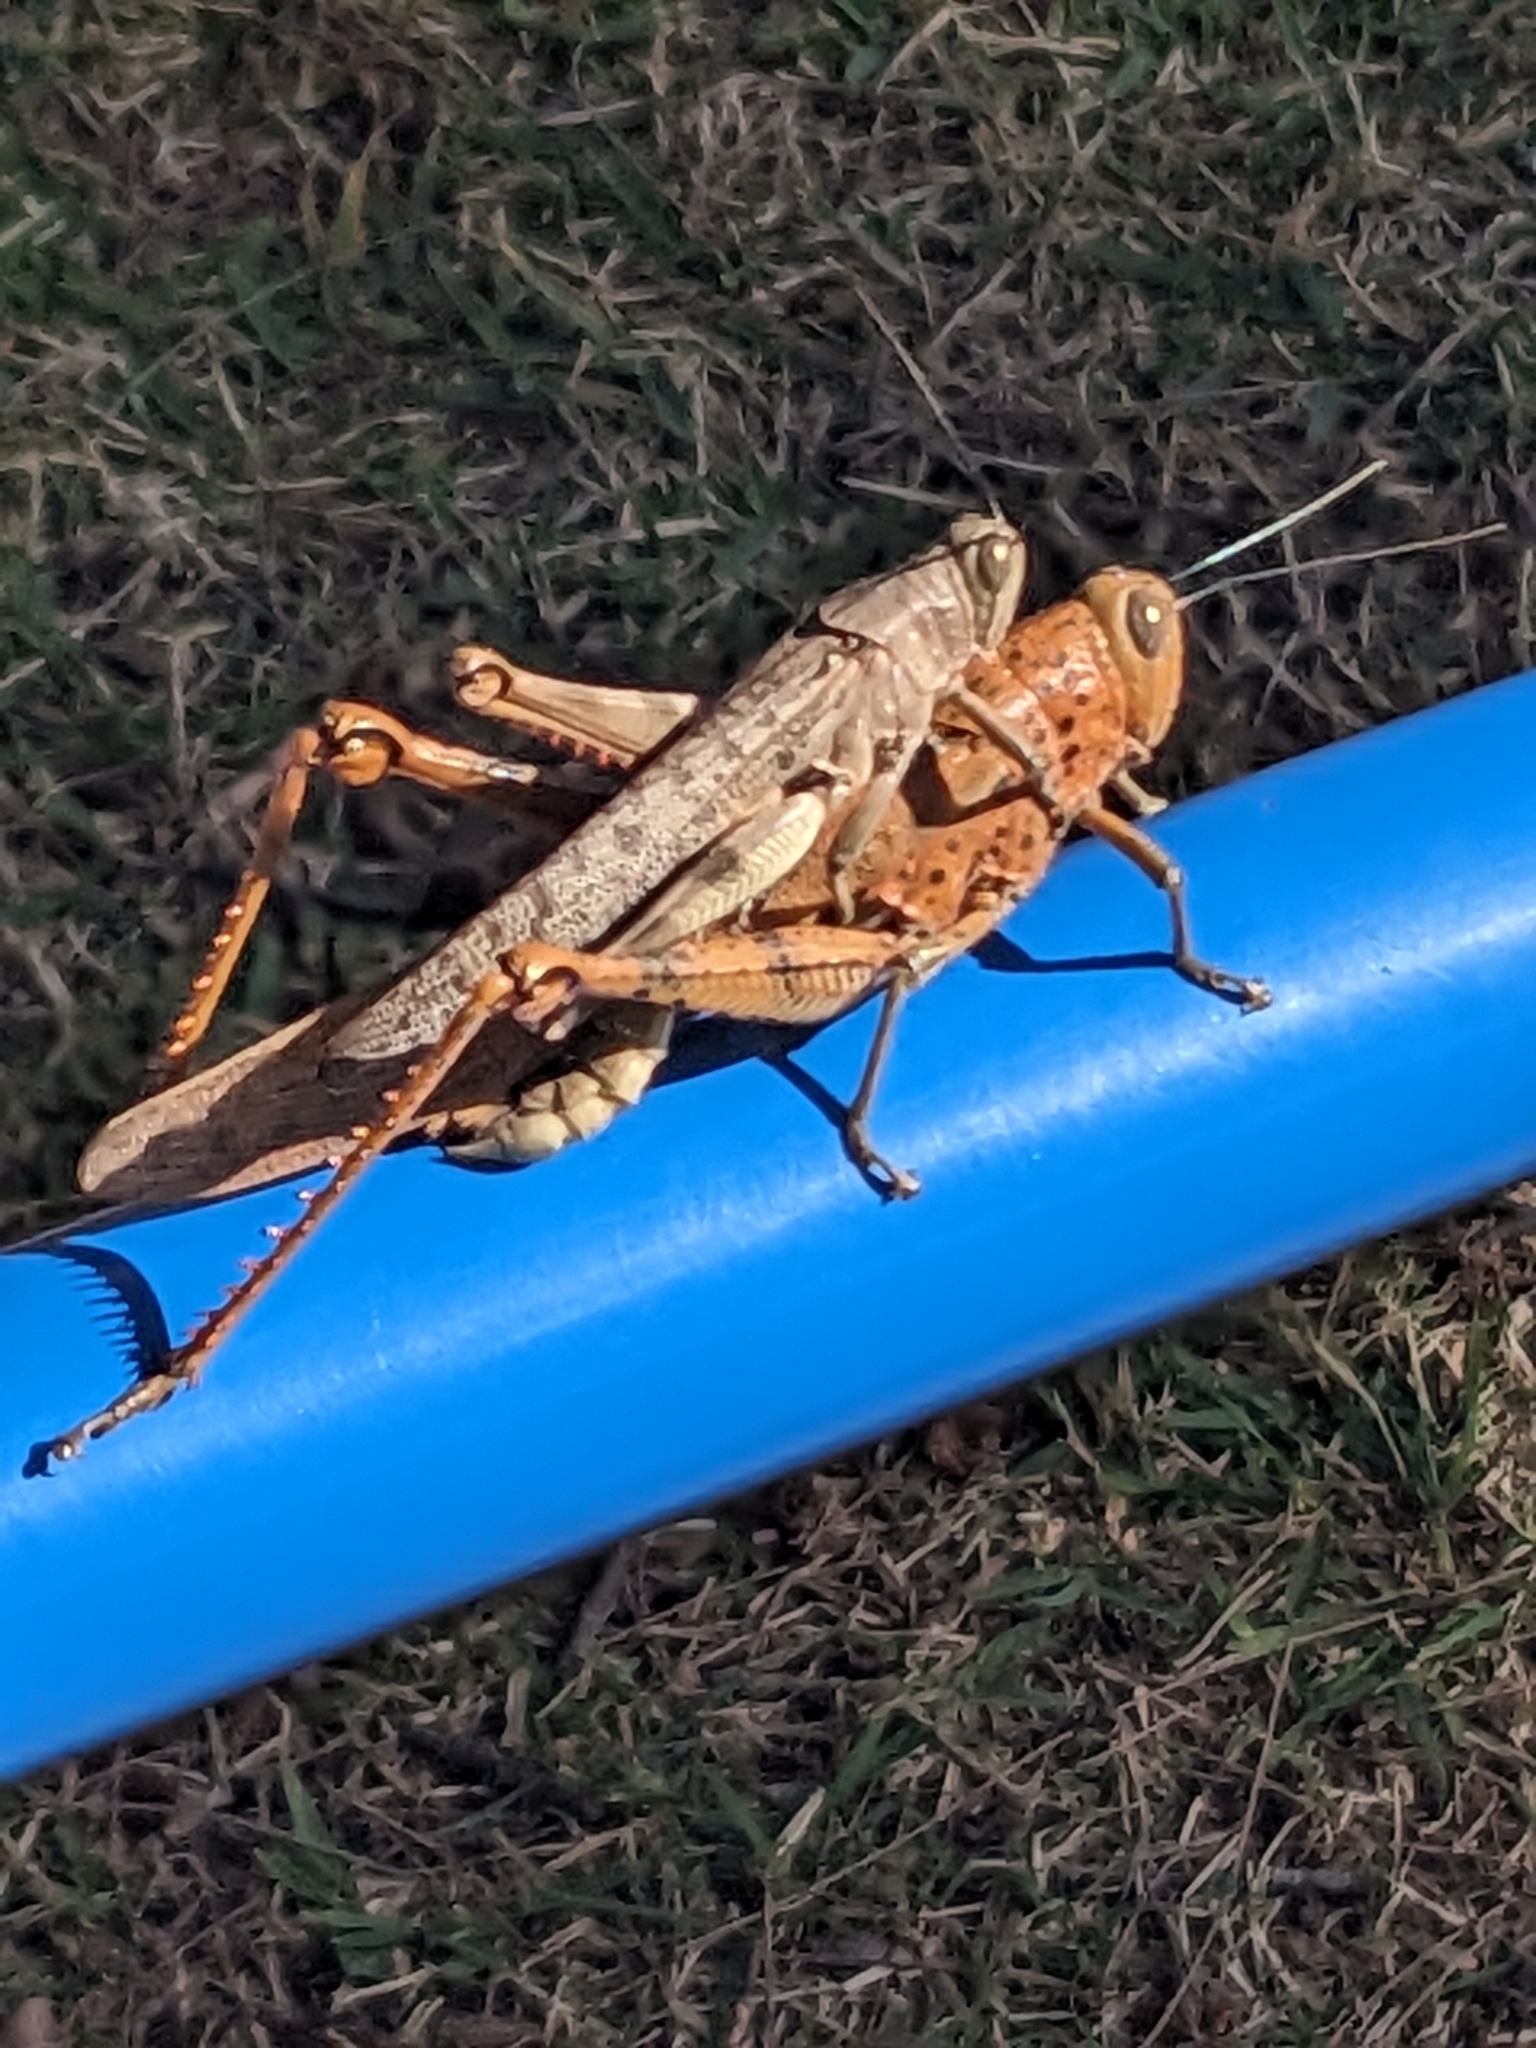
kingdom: Animalia
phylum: Arthropoda
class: Insecta
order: Orthoptera
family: Acrididae
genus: Valanga
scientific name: Valanga irregularis
